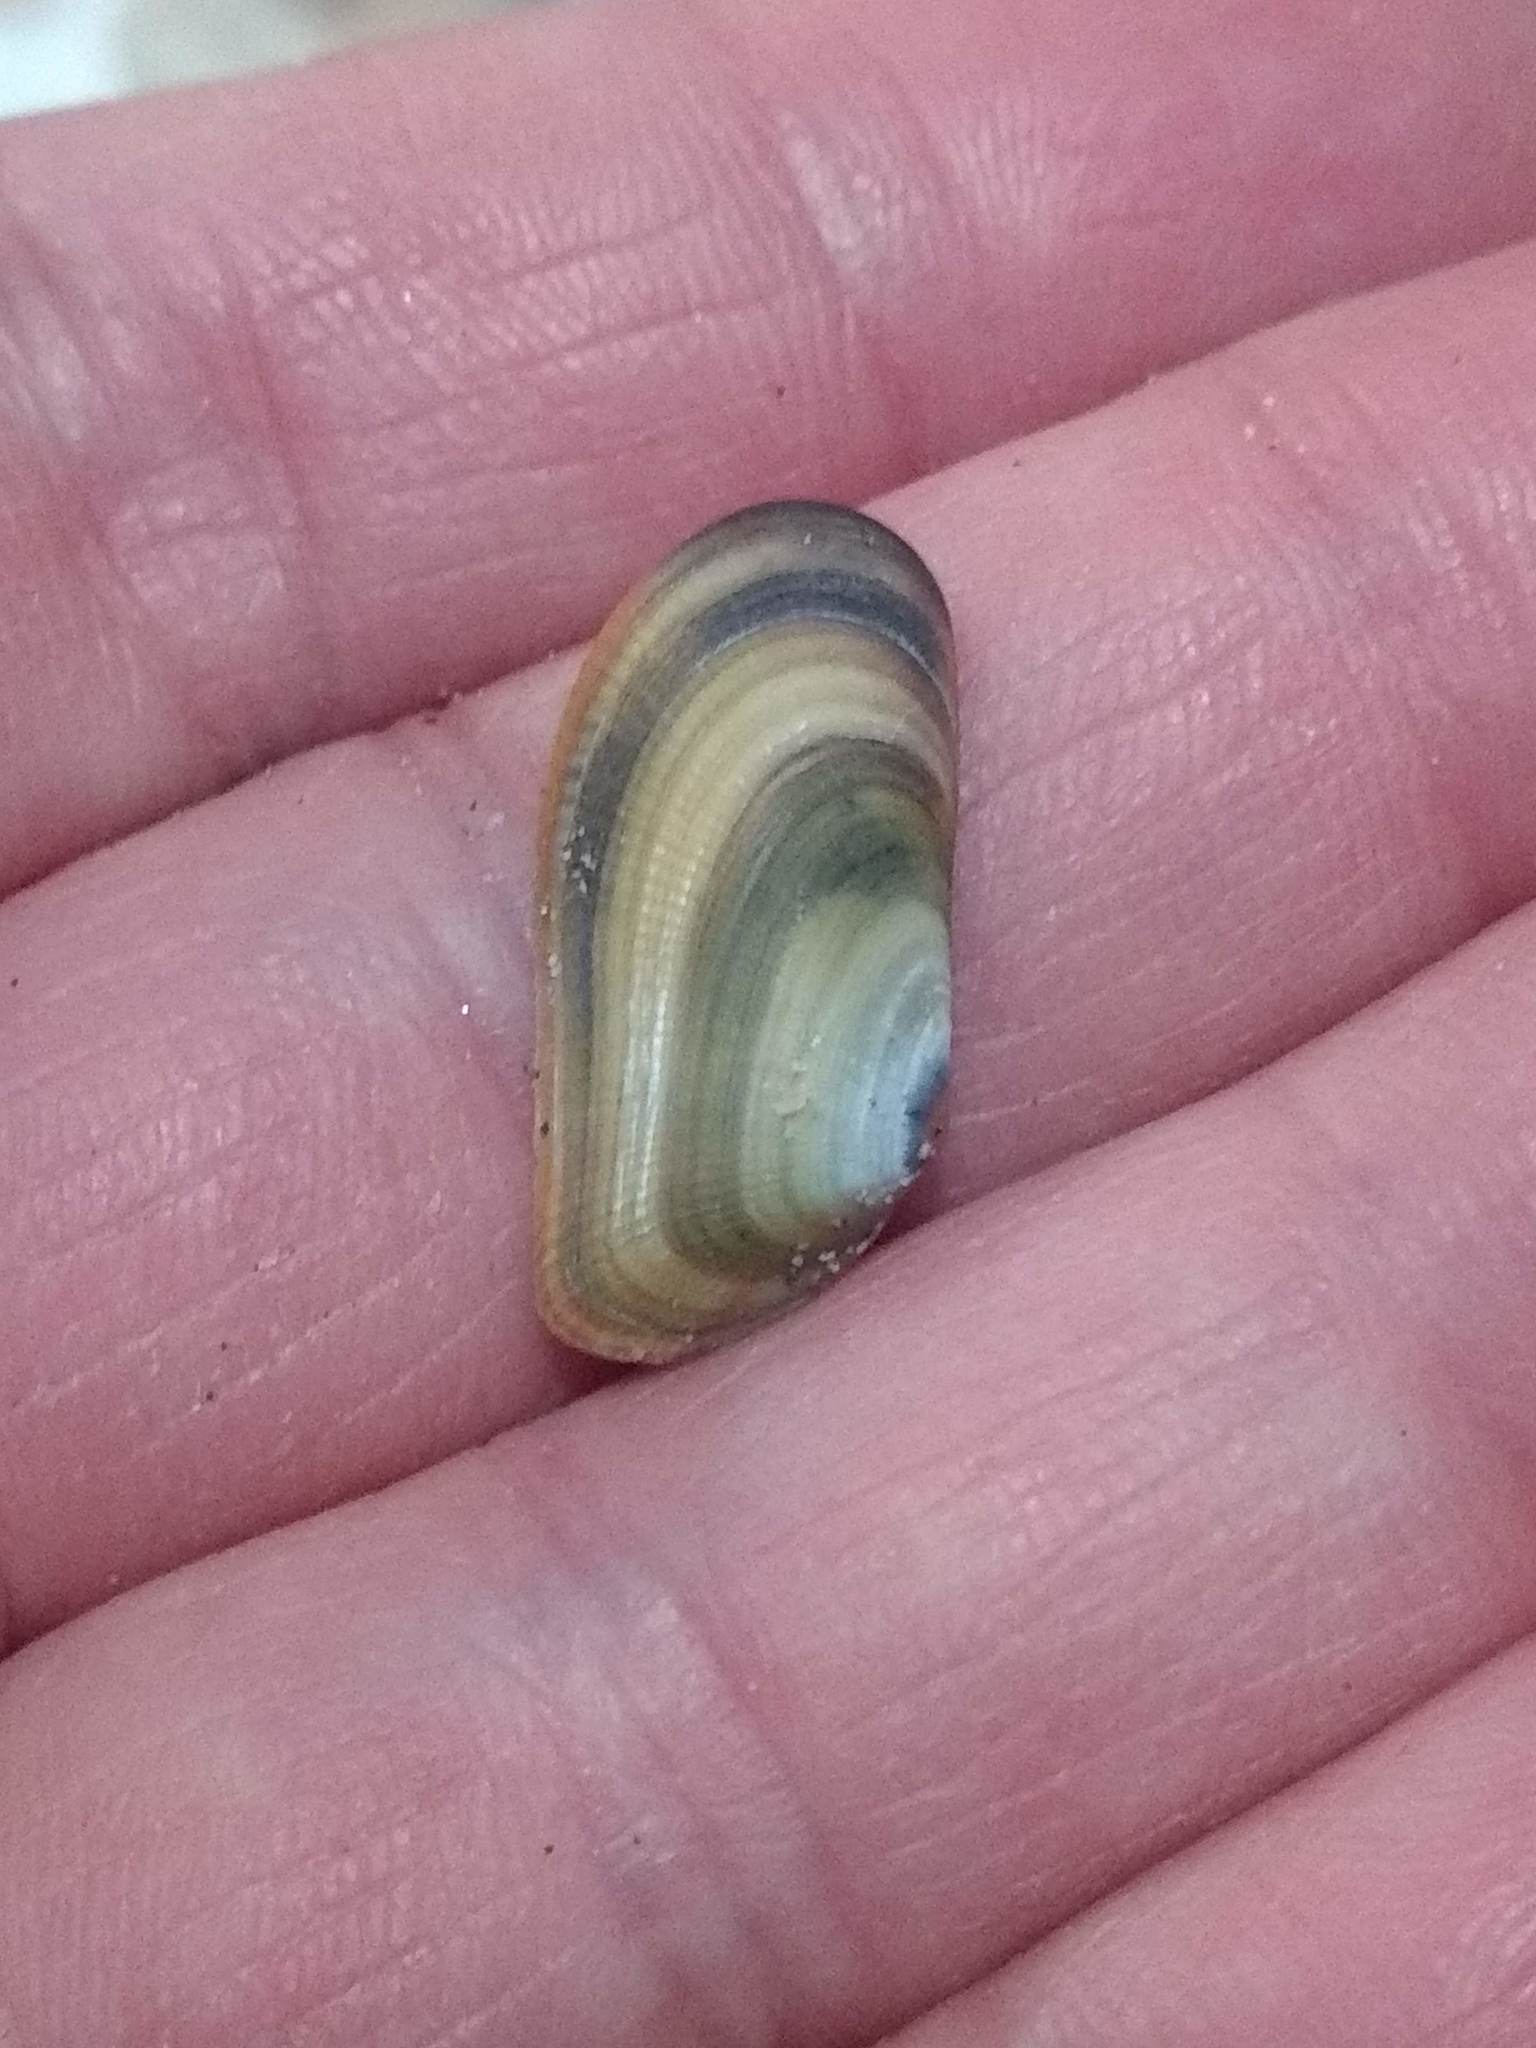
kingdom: Animalia
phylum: Mollusca
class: Bivalvia
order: Cardiida
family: Donacidae
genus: Donax
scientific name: Donax gouldii
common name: Gould beanclam
